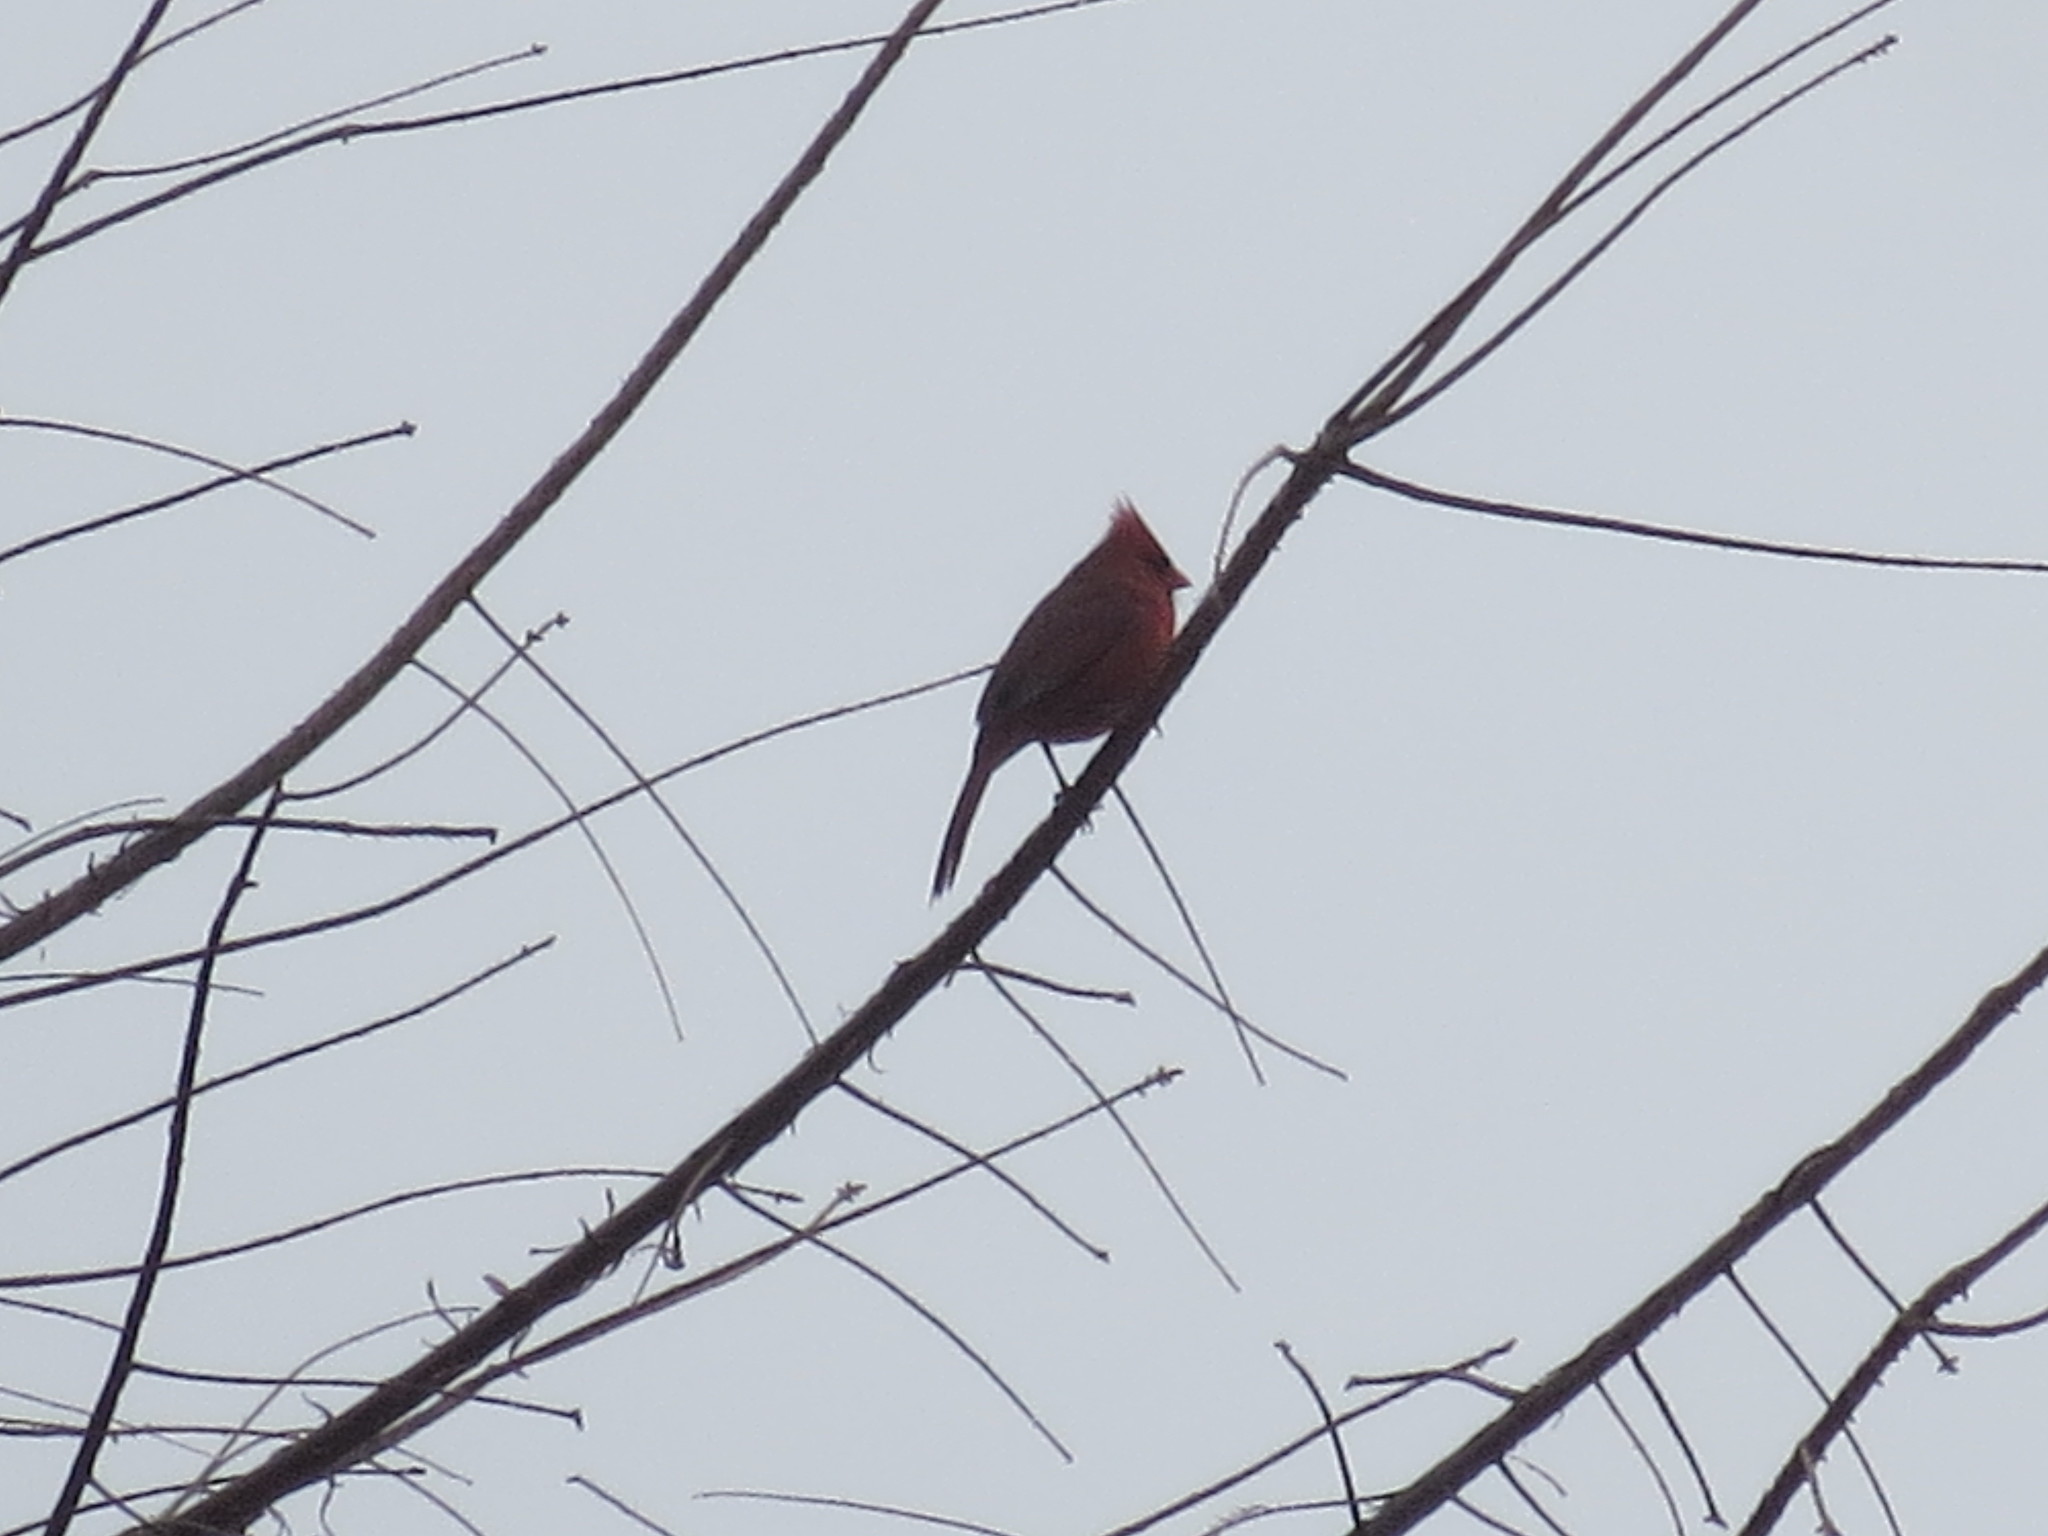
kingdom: Animalia
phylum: Chordata
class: Aves
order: Passeriformes
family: Cardinalidae
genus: Cardinalis
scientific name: Cardinalis cardinalis
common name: Northern cardinal
